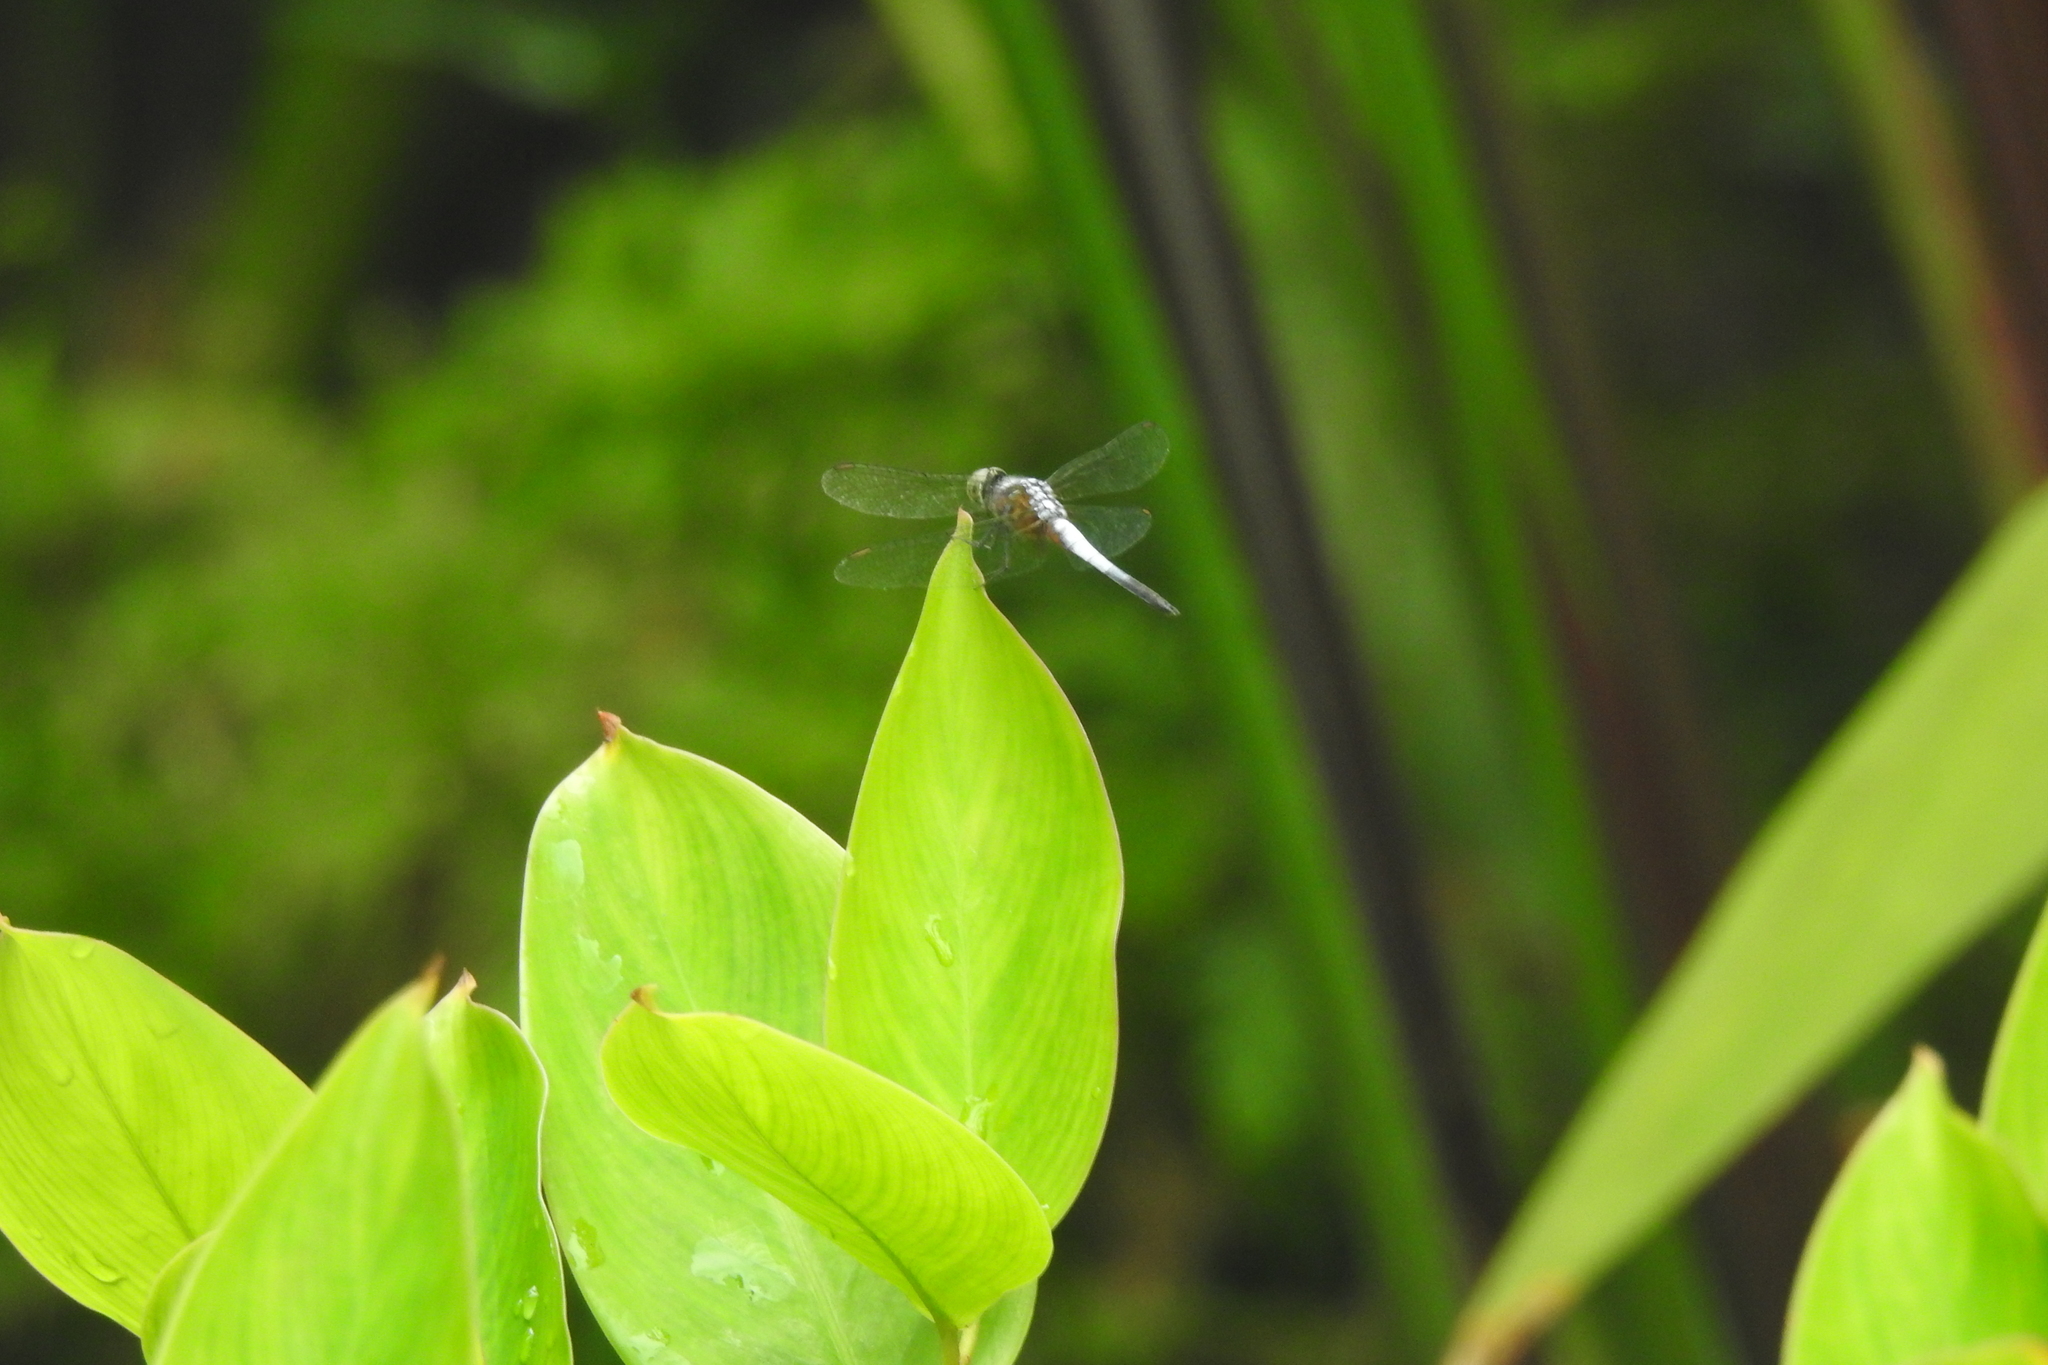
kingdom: Animalia
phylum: Arthropoda
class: Insecta
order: Odonata
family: Libellulidae
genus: Brachydiplax
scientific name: Brachydiplax chalybea
